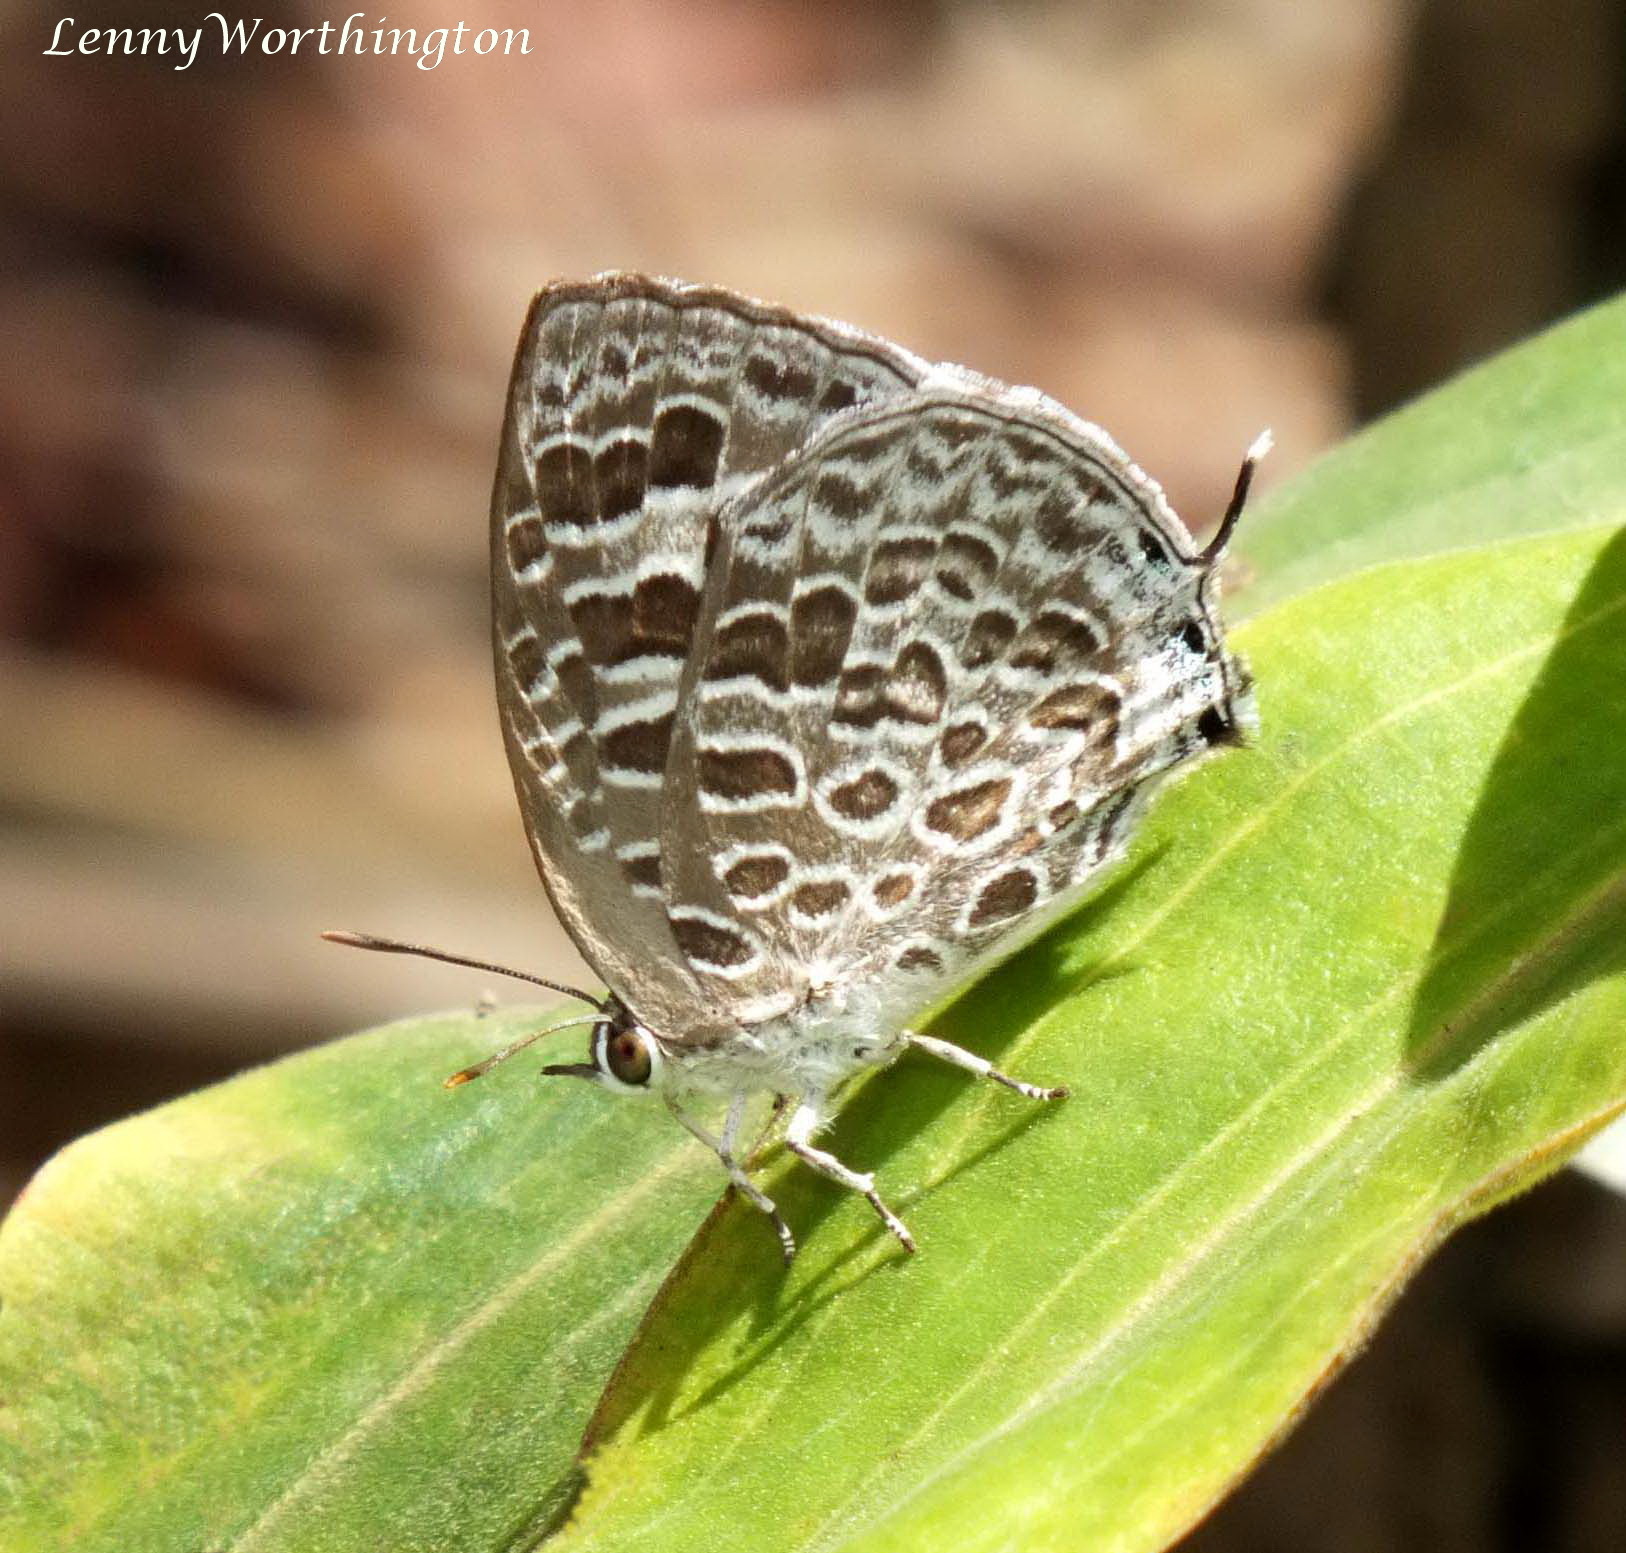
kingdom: Animalia
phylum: Arthropoda
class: Insecta
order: Lepidoptera
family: Lycaenidae
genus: Arhopala
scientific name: Arhopala aberrans
